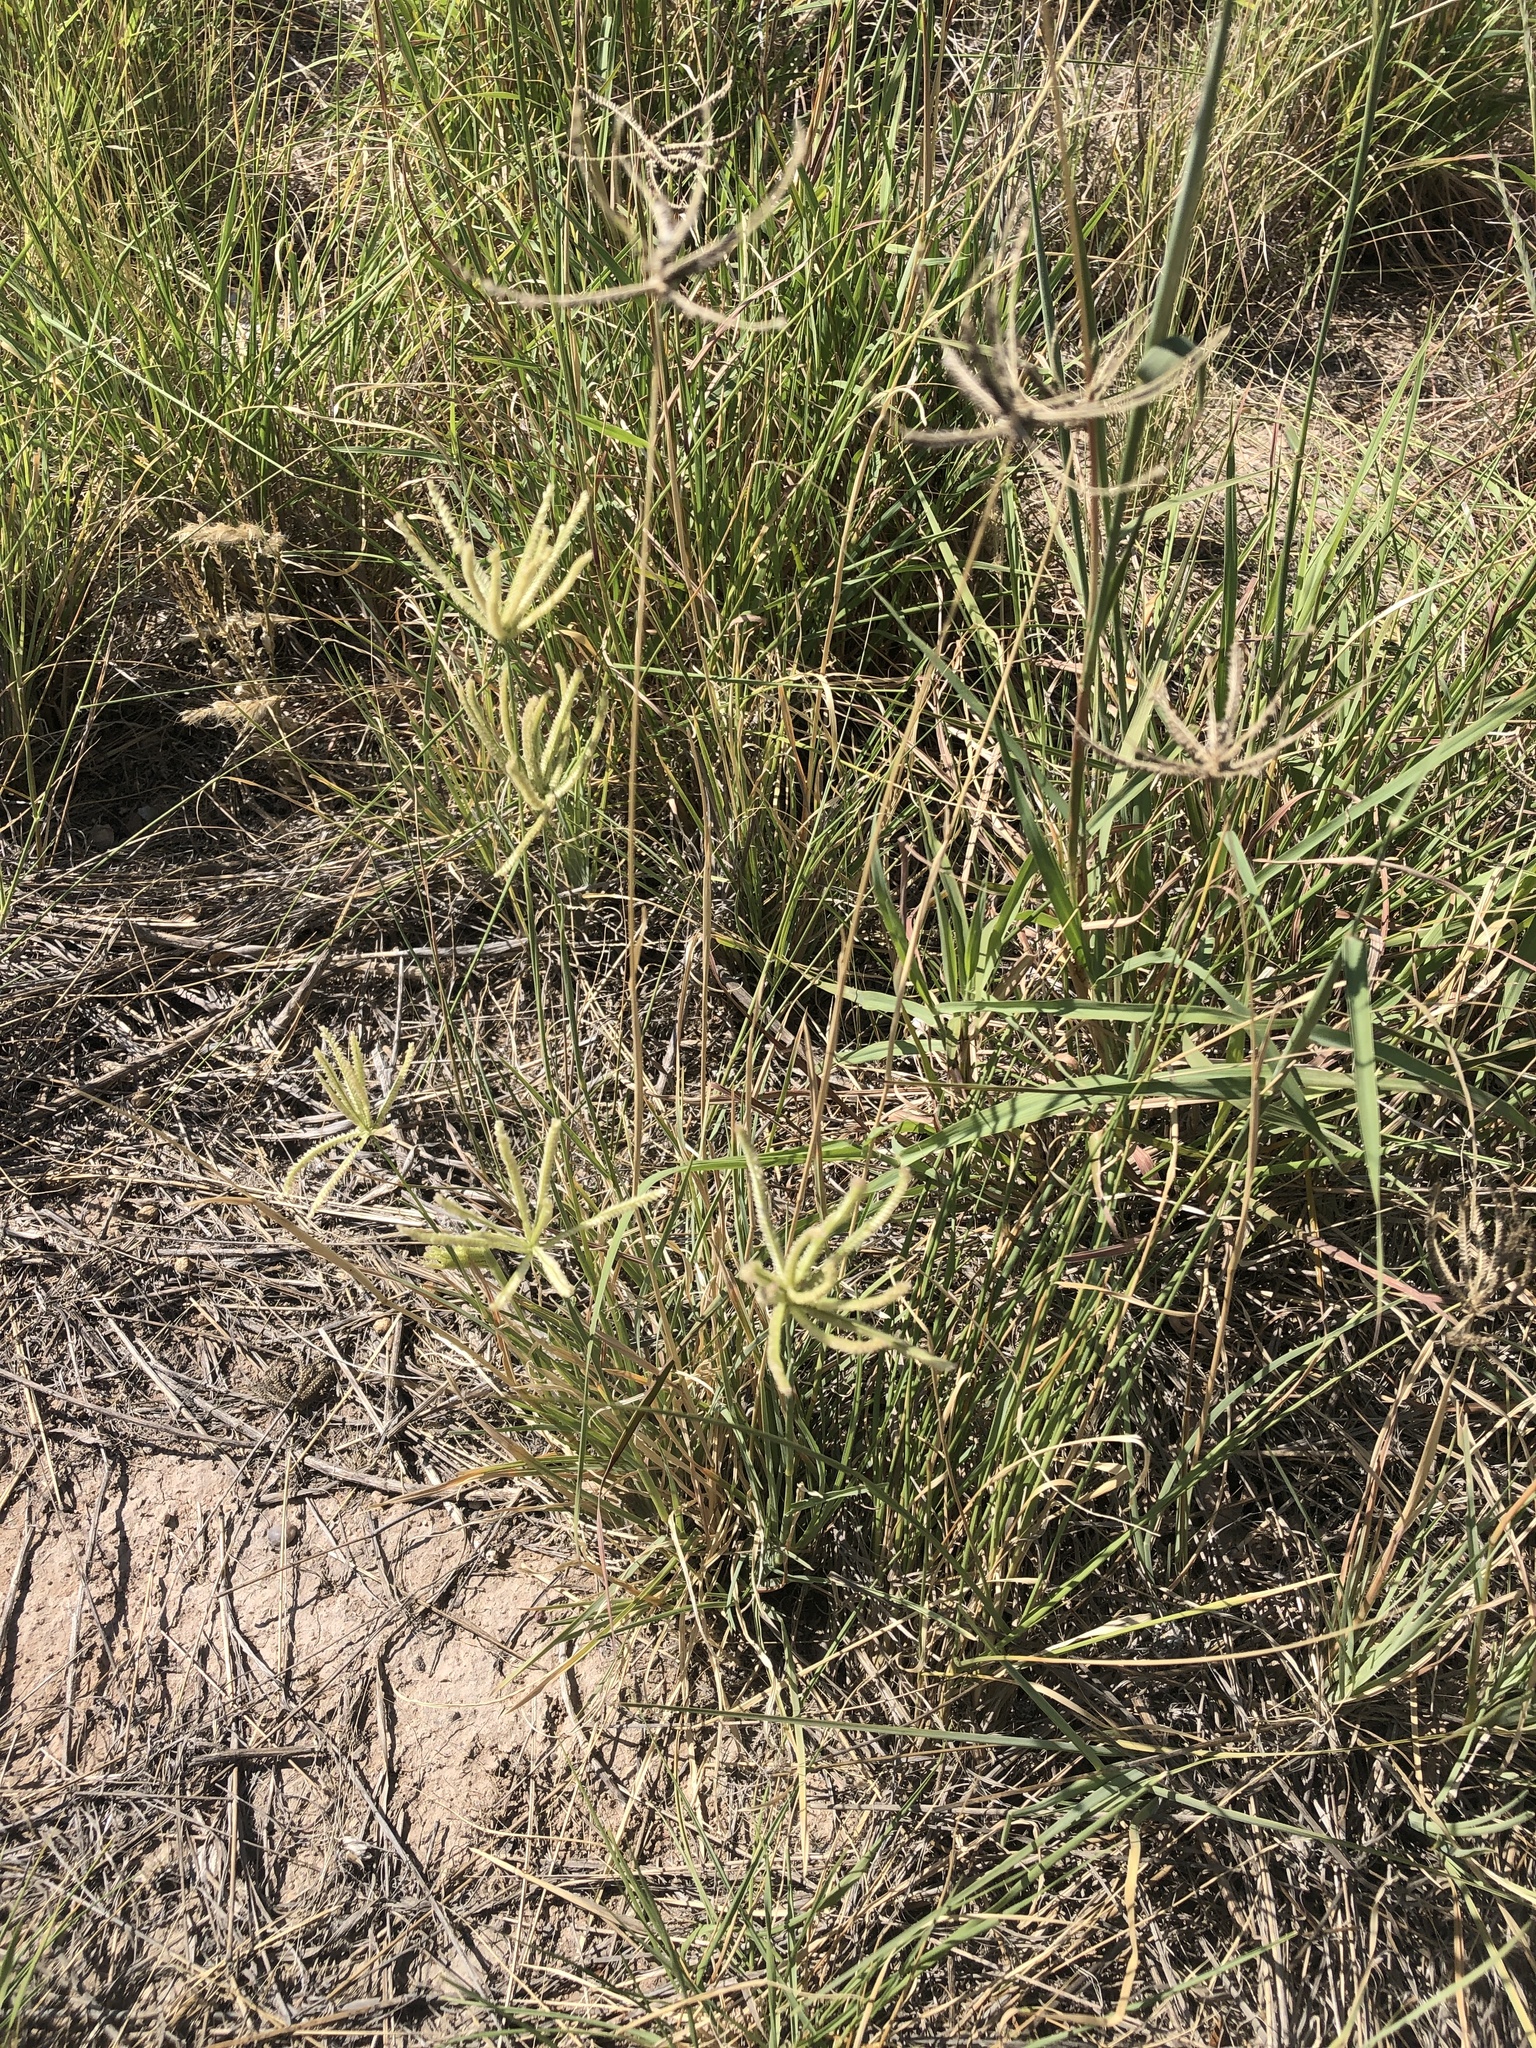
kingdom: Plantae
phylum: Tracheophyta
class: Liliopsida
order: Poales
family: Poaceae
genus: Chloris
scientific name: Chloris cucullata
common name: Hooded windmill grass
